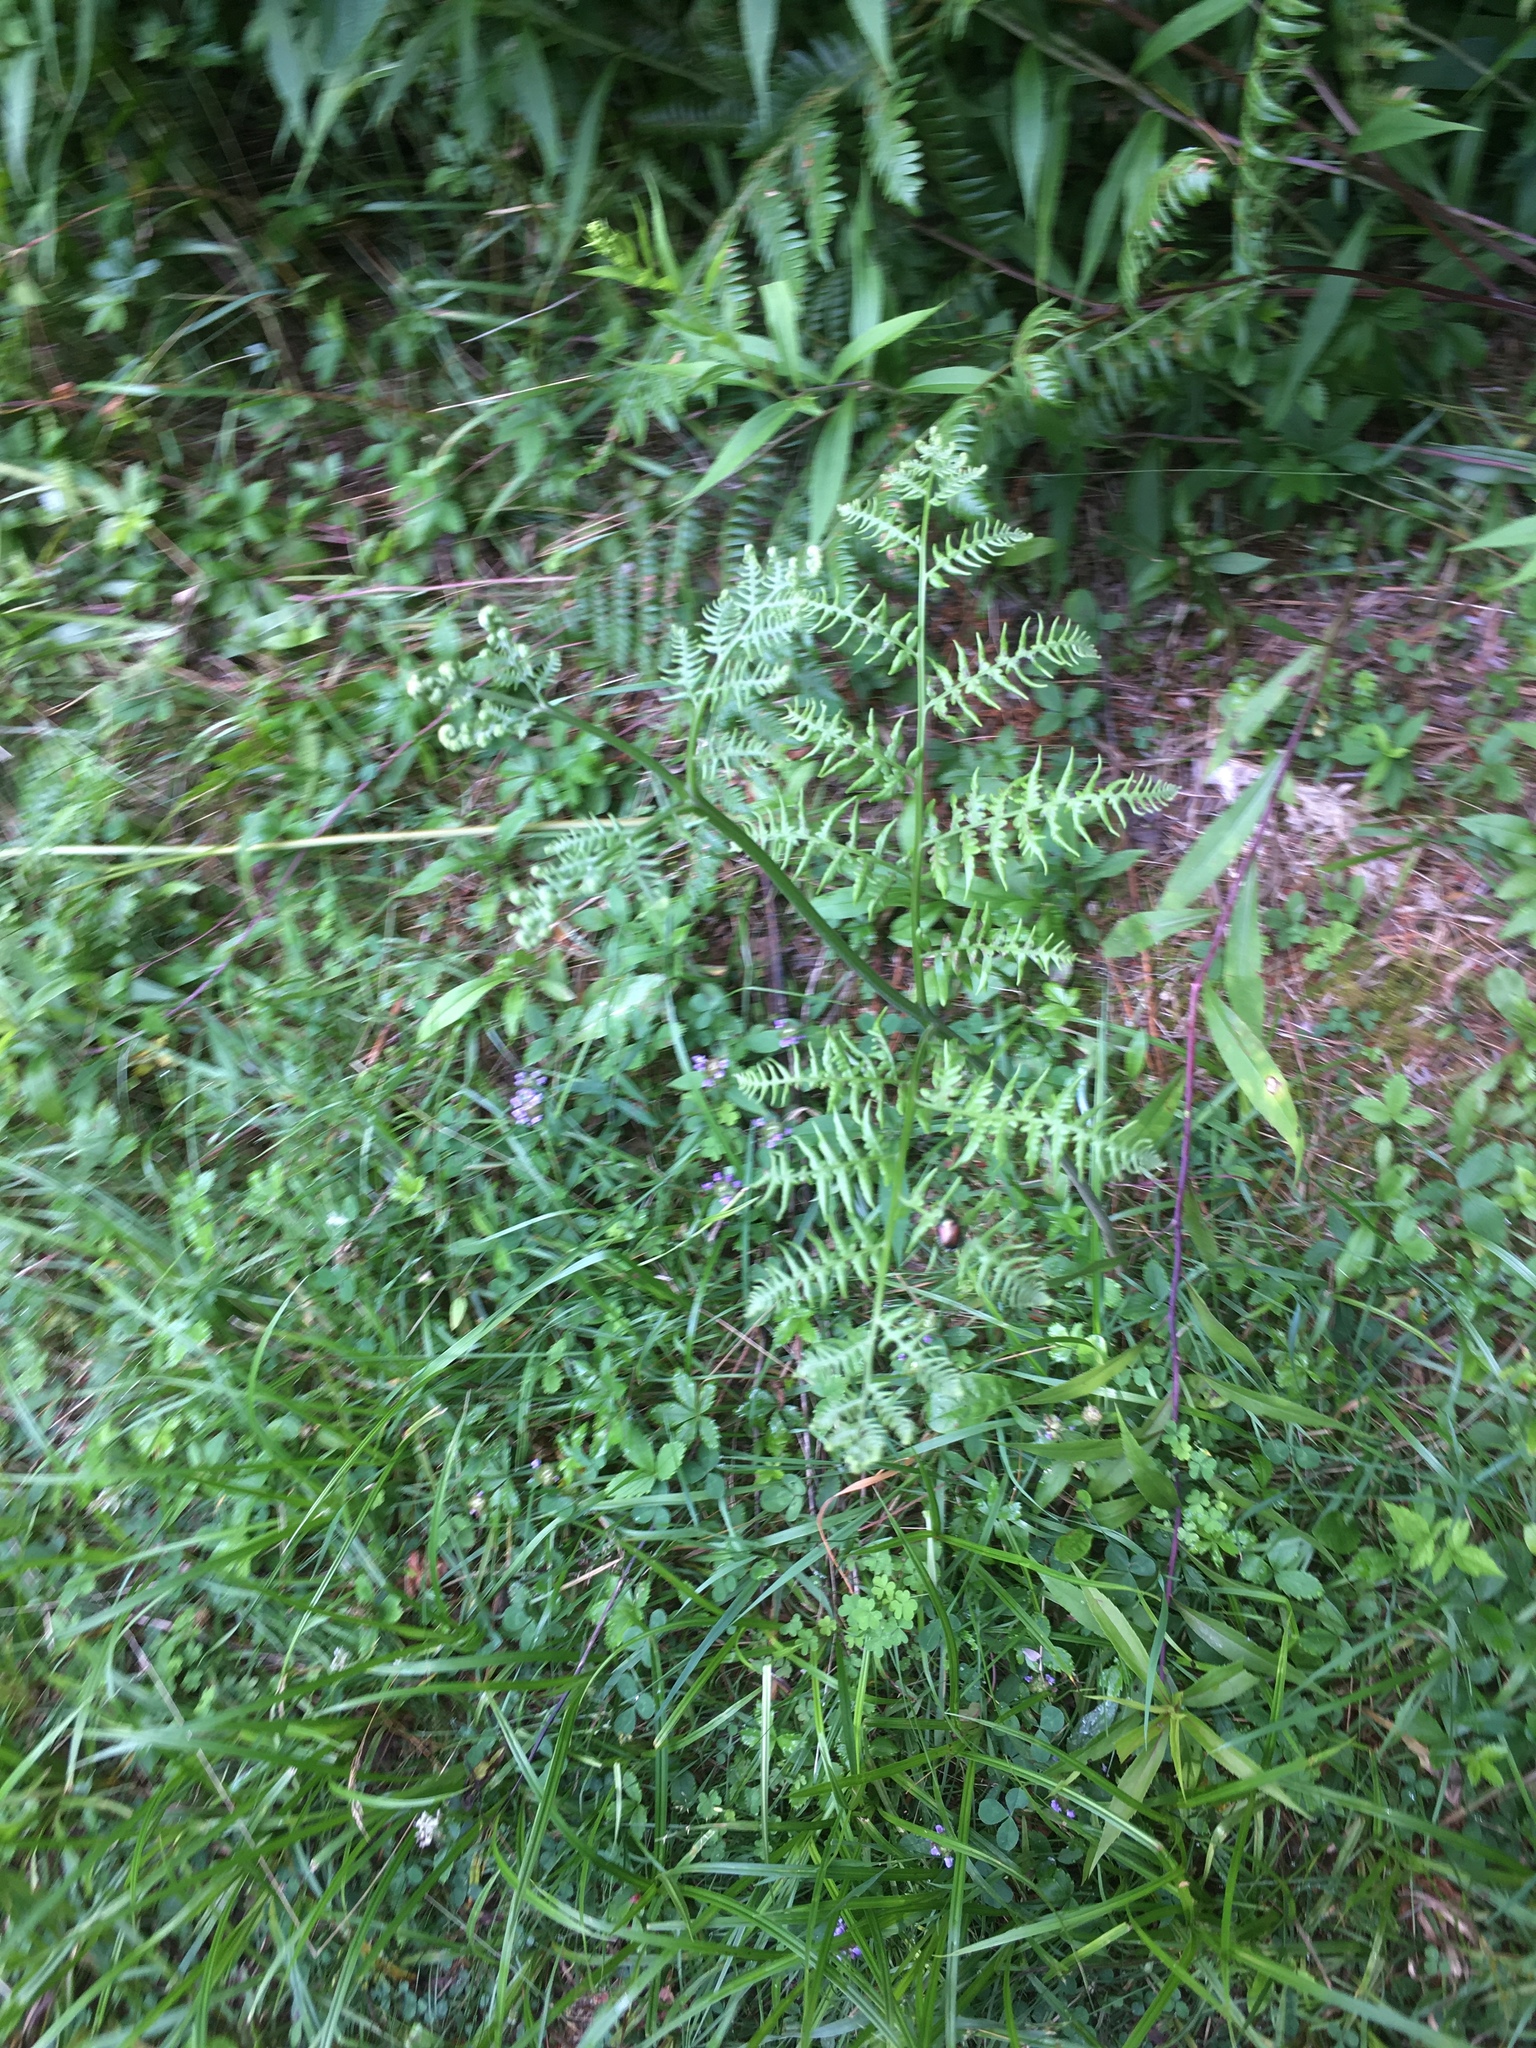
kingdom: Plantae
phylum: Tracheophyta
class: Polypodiopsida
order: Polypodiales
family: Dennstaedtiaceae
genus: Pteridium
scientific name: Pteridium aquilinum
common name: Bracken
